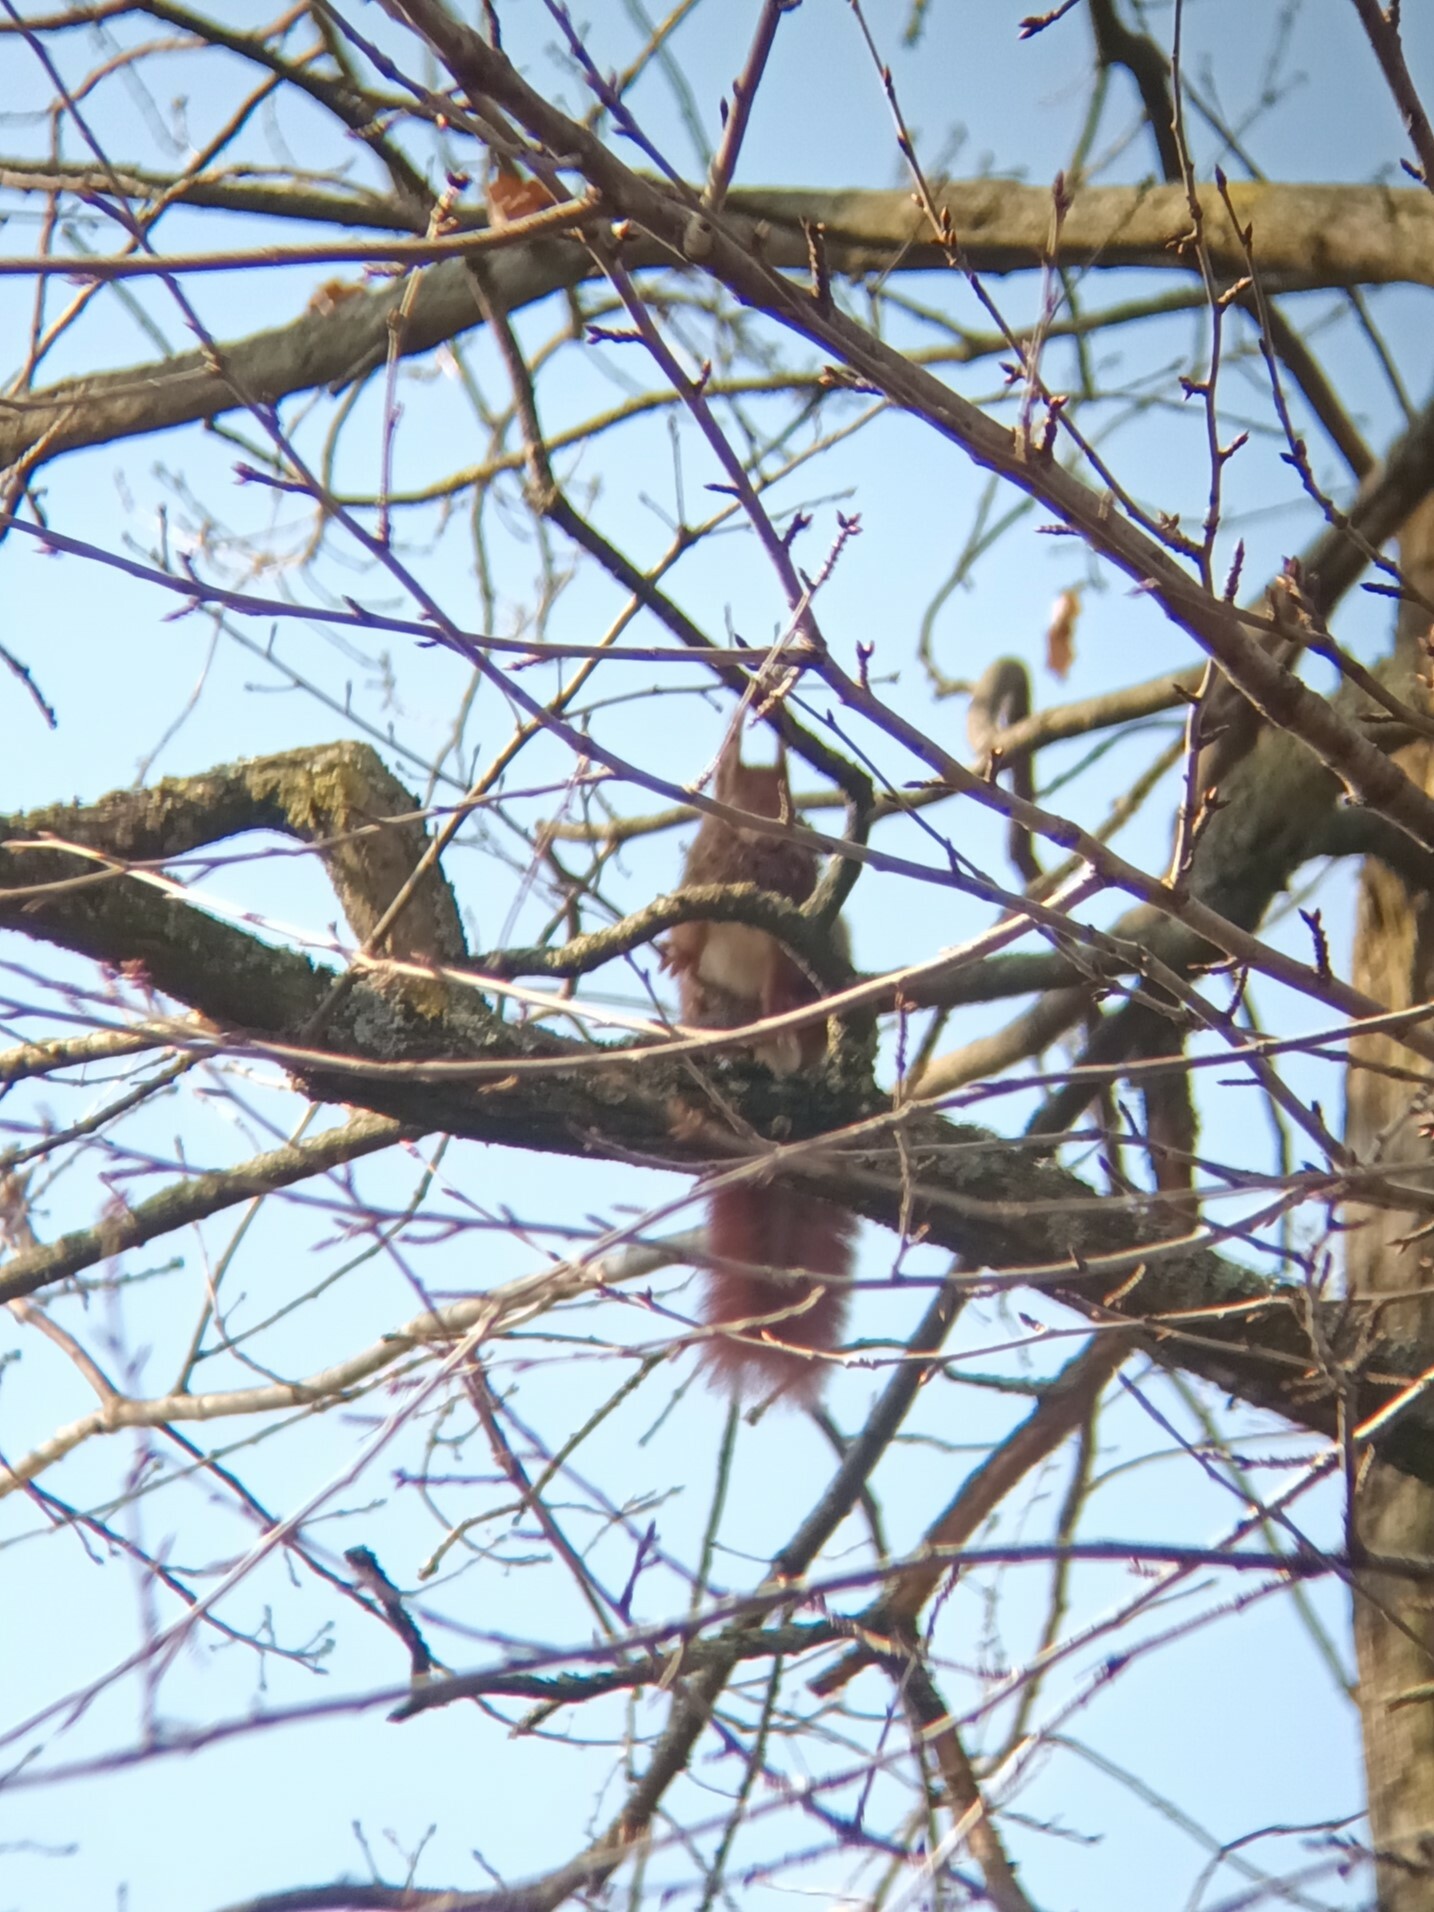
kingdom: Animalia
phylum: Chordata
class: Mammalia
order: Rodentia
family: Sciuridae
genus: Sciurus
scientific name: Sciurus vulgaris
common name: Eurasian red squirrel
